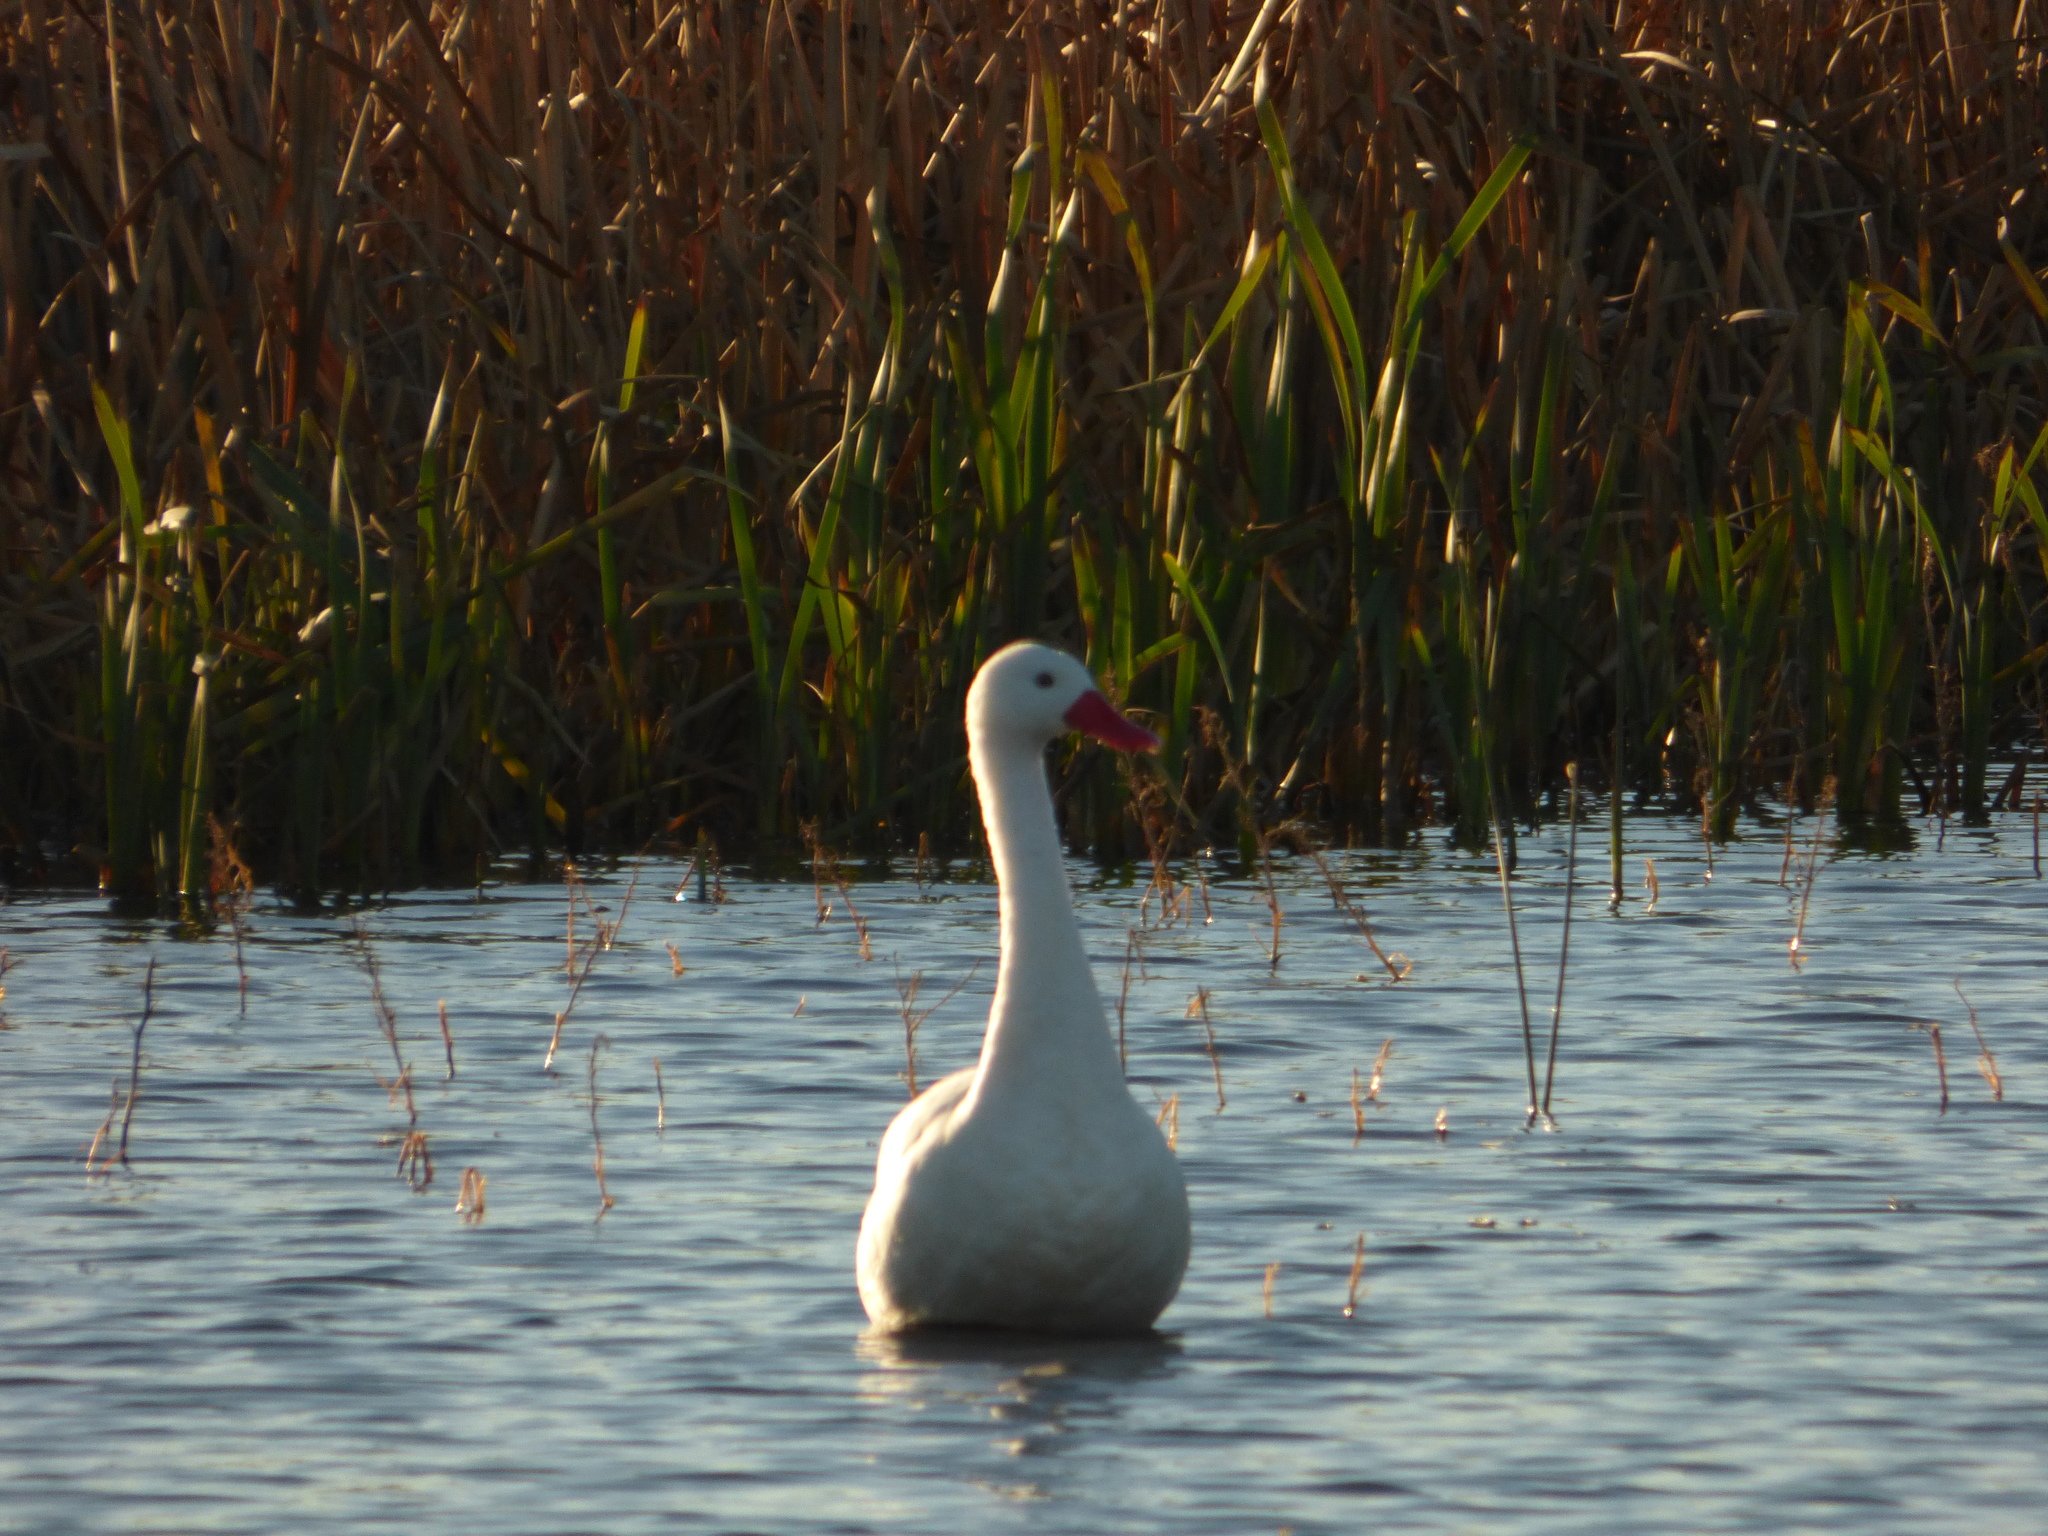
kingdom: Animalia
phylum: Chordata
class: Aves
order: Anseriformes
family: Anatidae
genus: Coscoroba
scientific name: Coscoroba coscoroba
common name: Coscoroba swan
